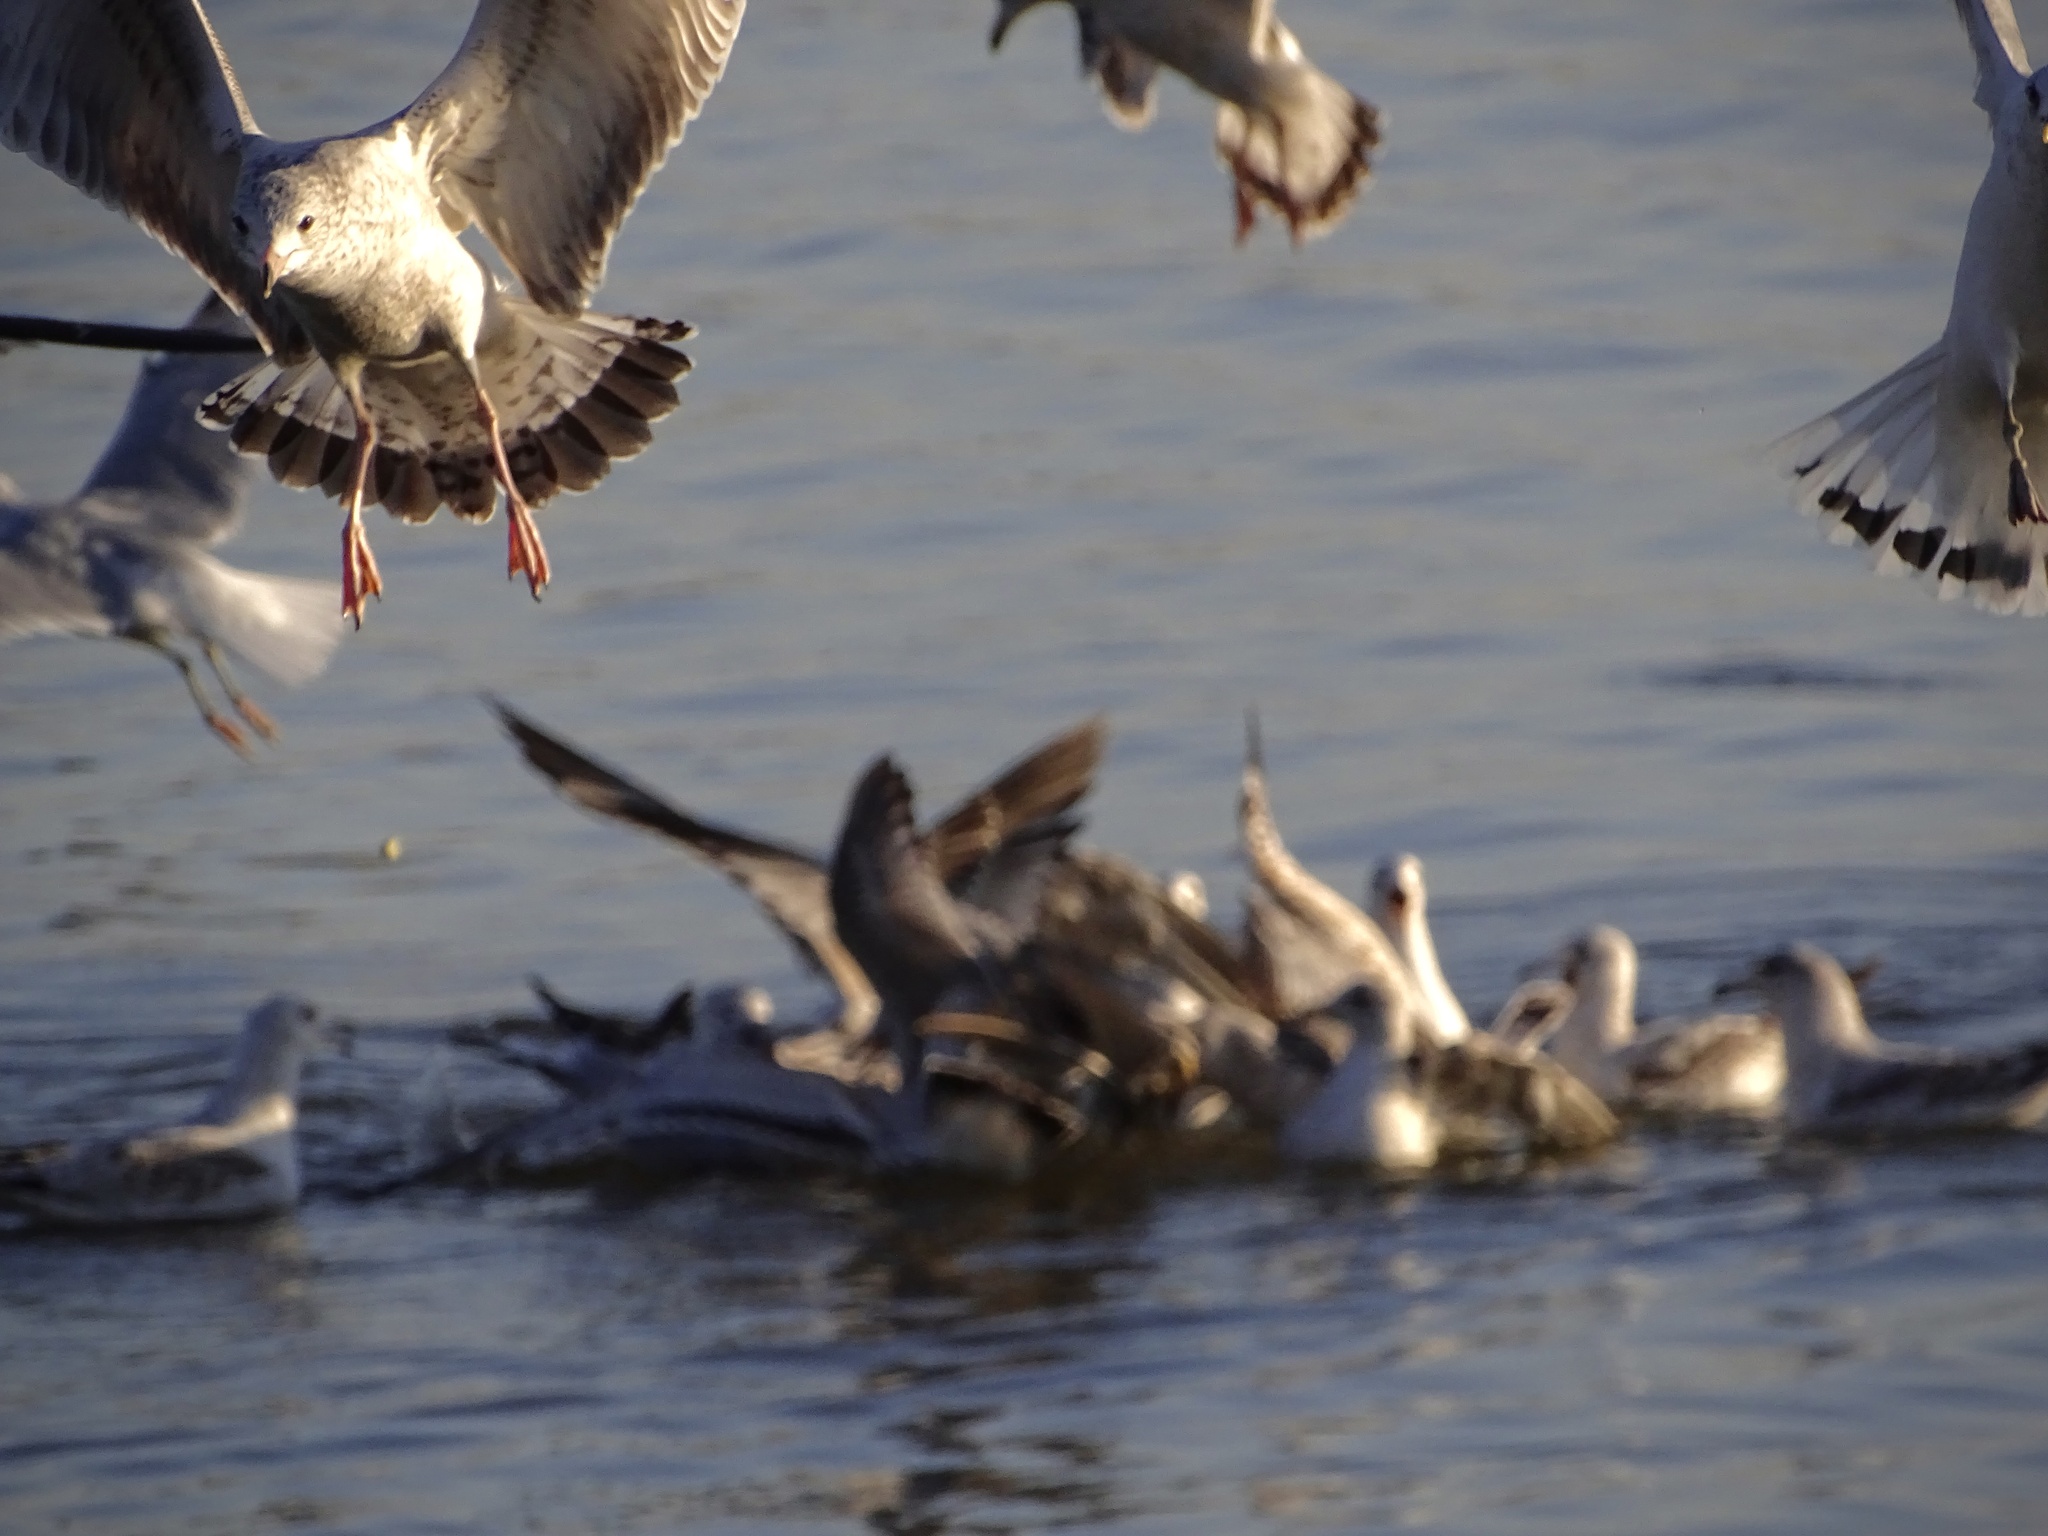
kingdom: Animalia
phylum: Chordata
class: Aves
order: Charadriiformes
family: Laridae
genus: Larus
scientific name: Larus delawarensis
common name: Ring-billed gull
